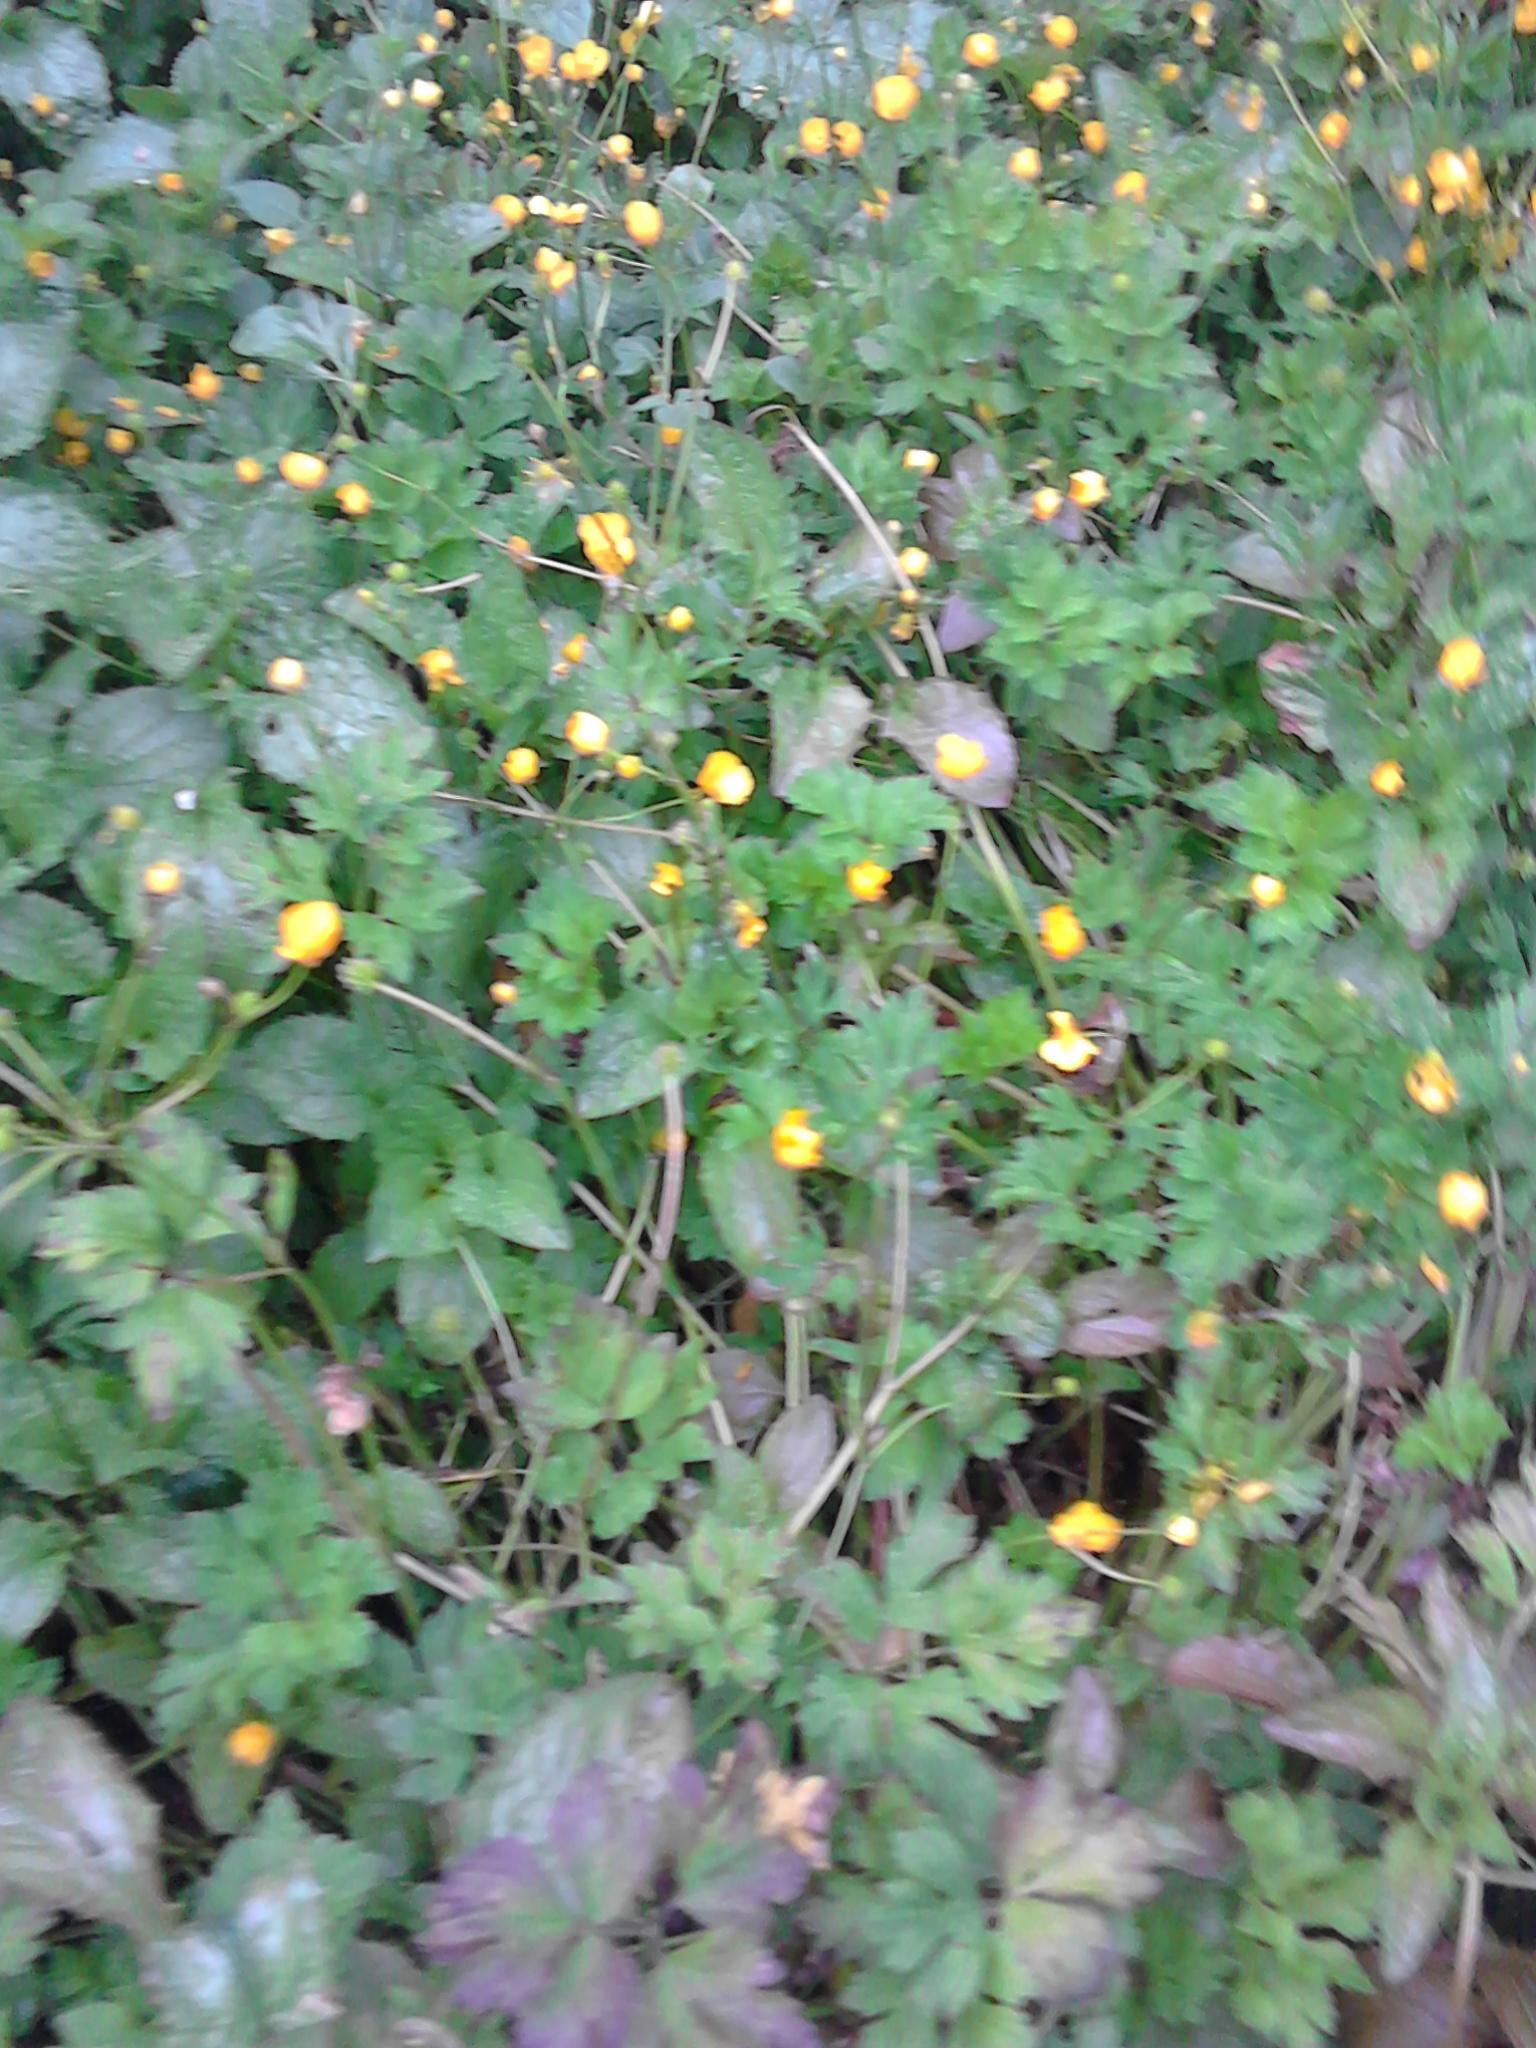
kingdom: Plantae
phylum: Tracheophyta
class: Magnoliopsida
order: Ranunculales
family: Ranunculaceae
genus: Ranunculus
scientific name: Ranunculus repens
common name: Creeping buttercup
